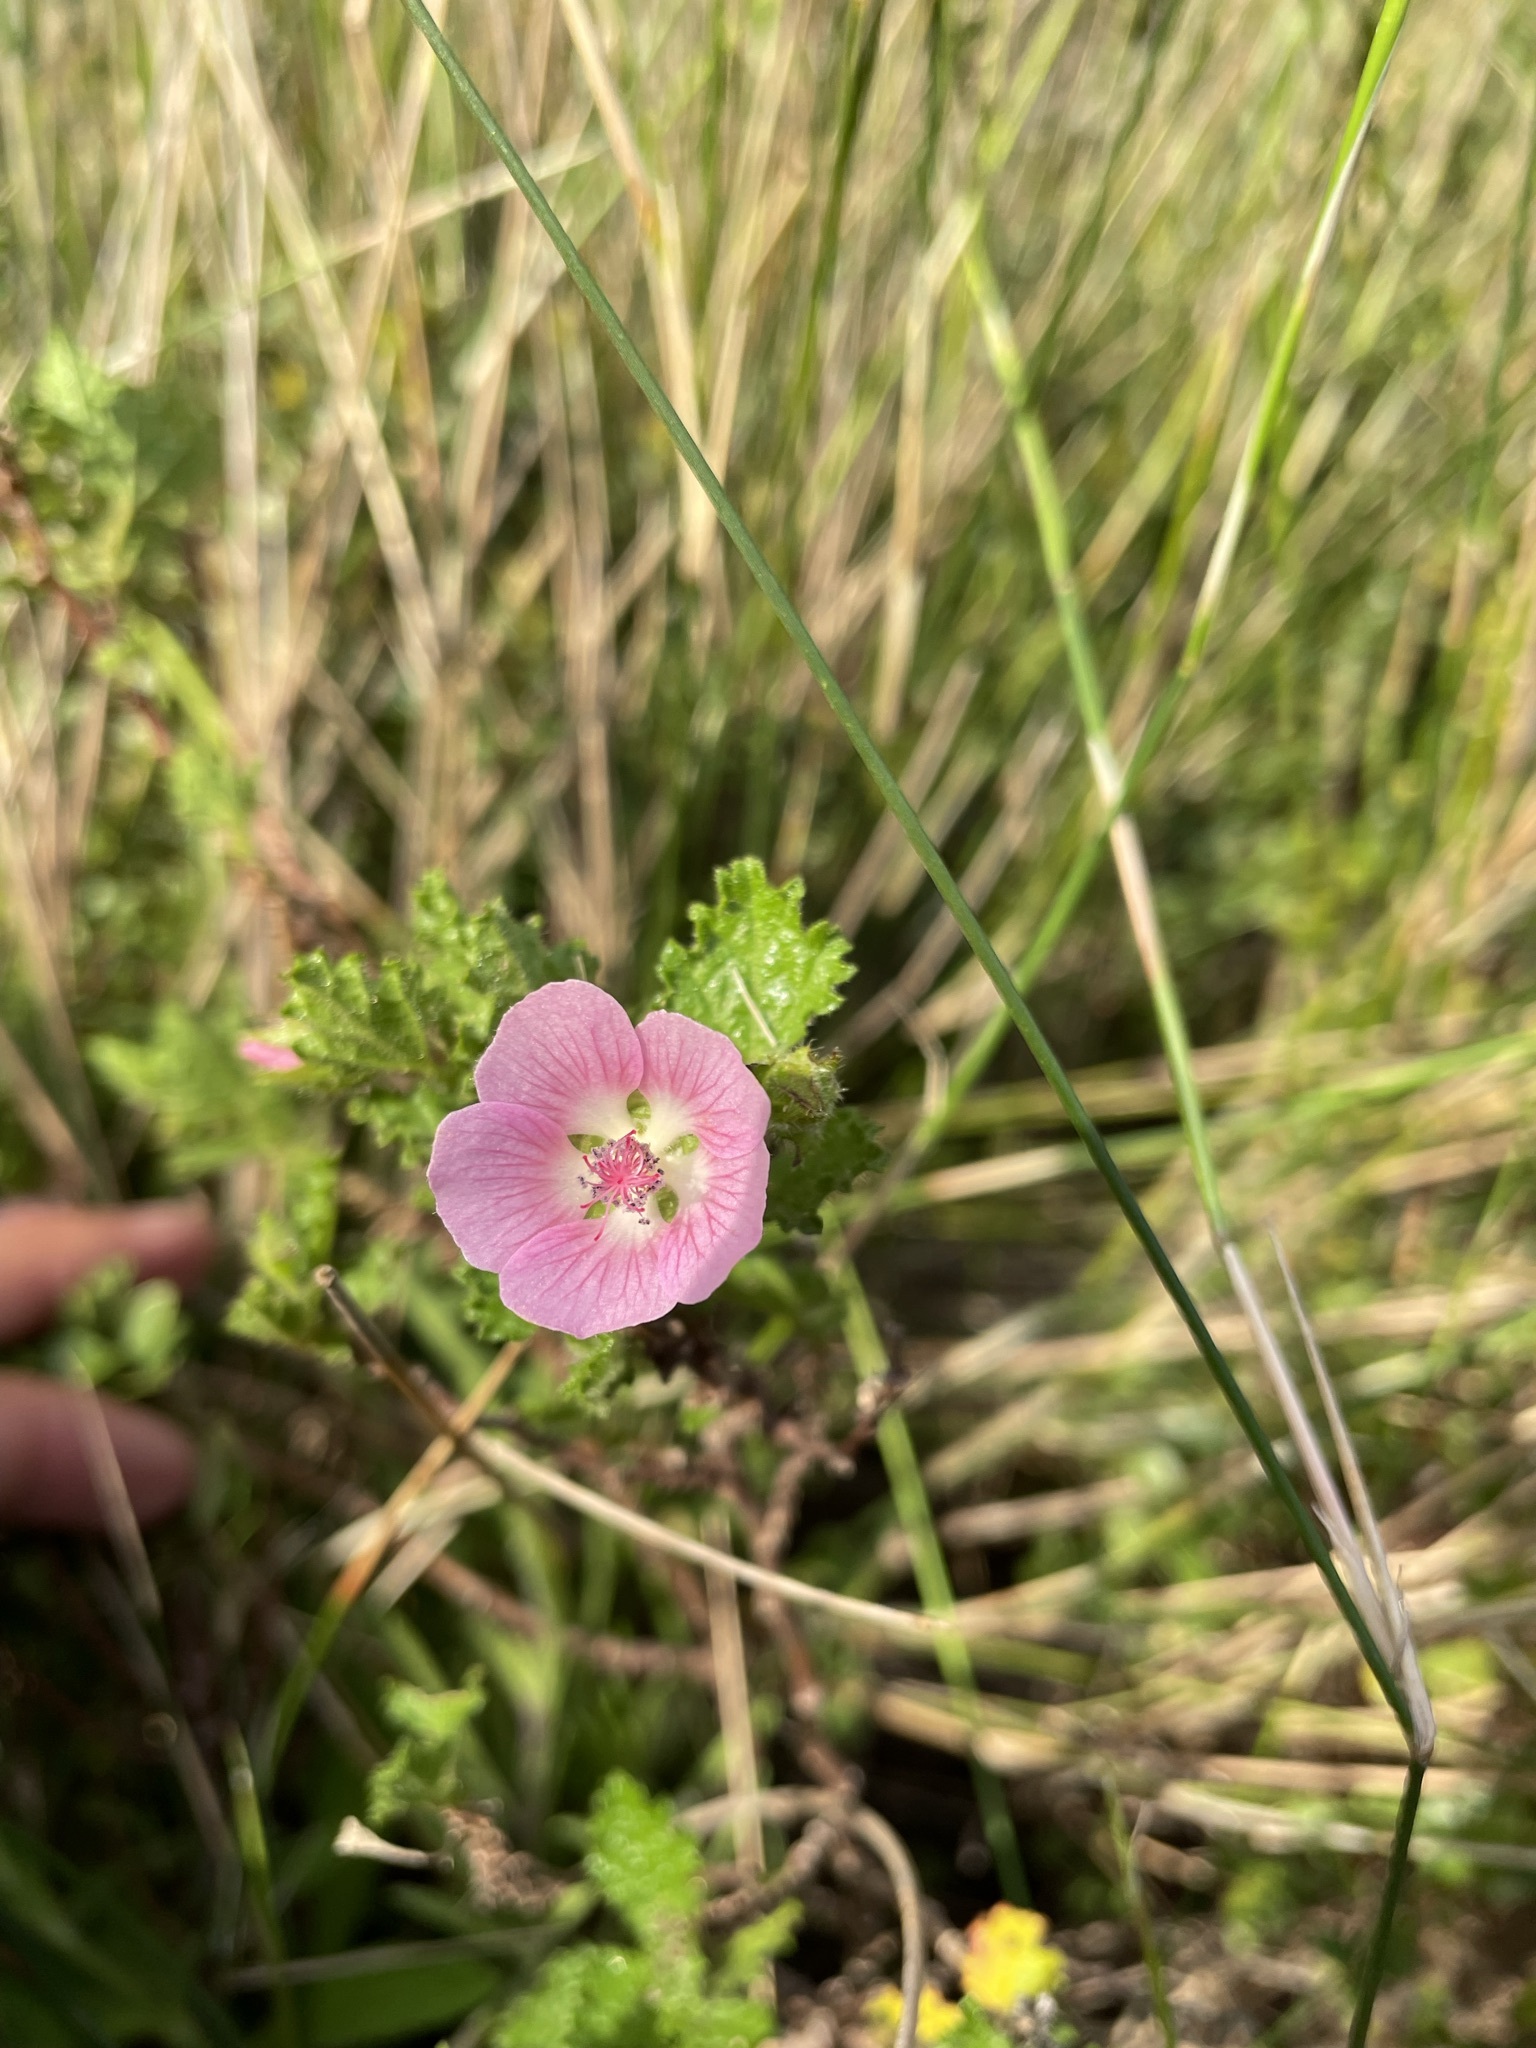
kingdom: Plantae
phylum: Tracheophyta
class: Magnoliopsida
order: Malvales
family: Malvaceae
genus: Anisodontea
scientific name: Anisodontea scabrosa
